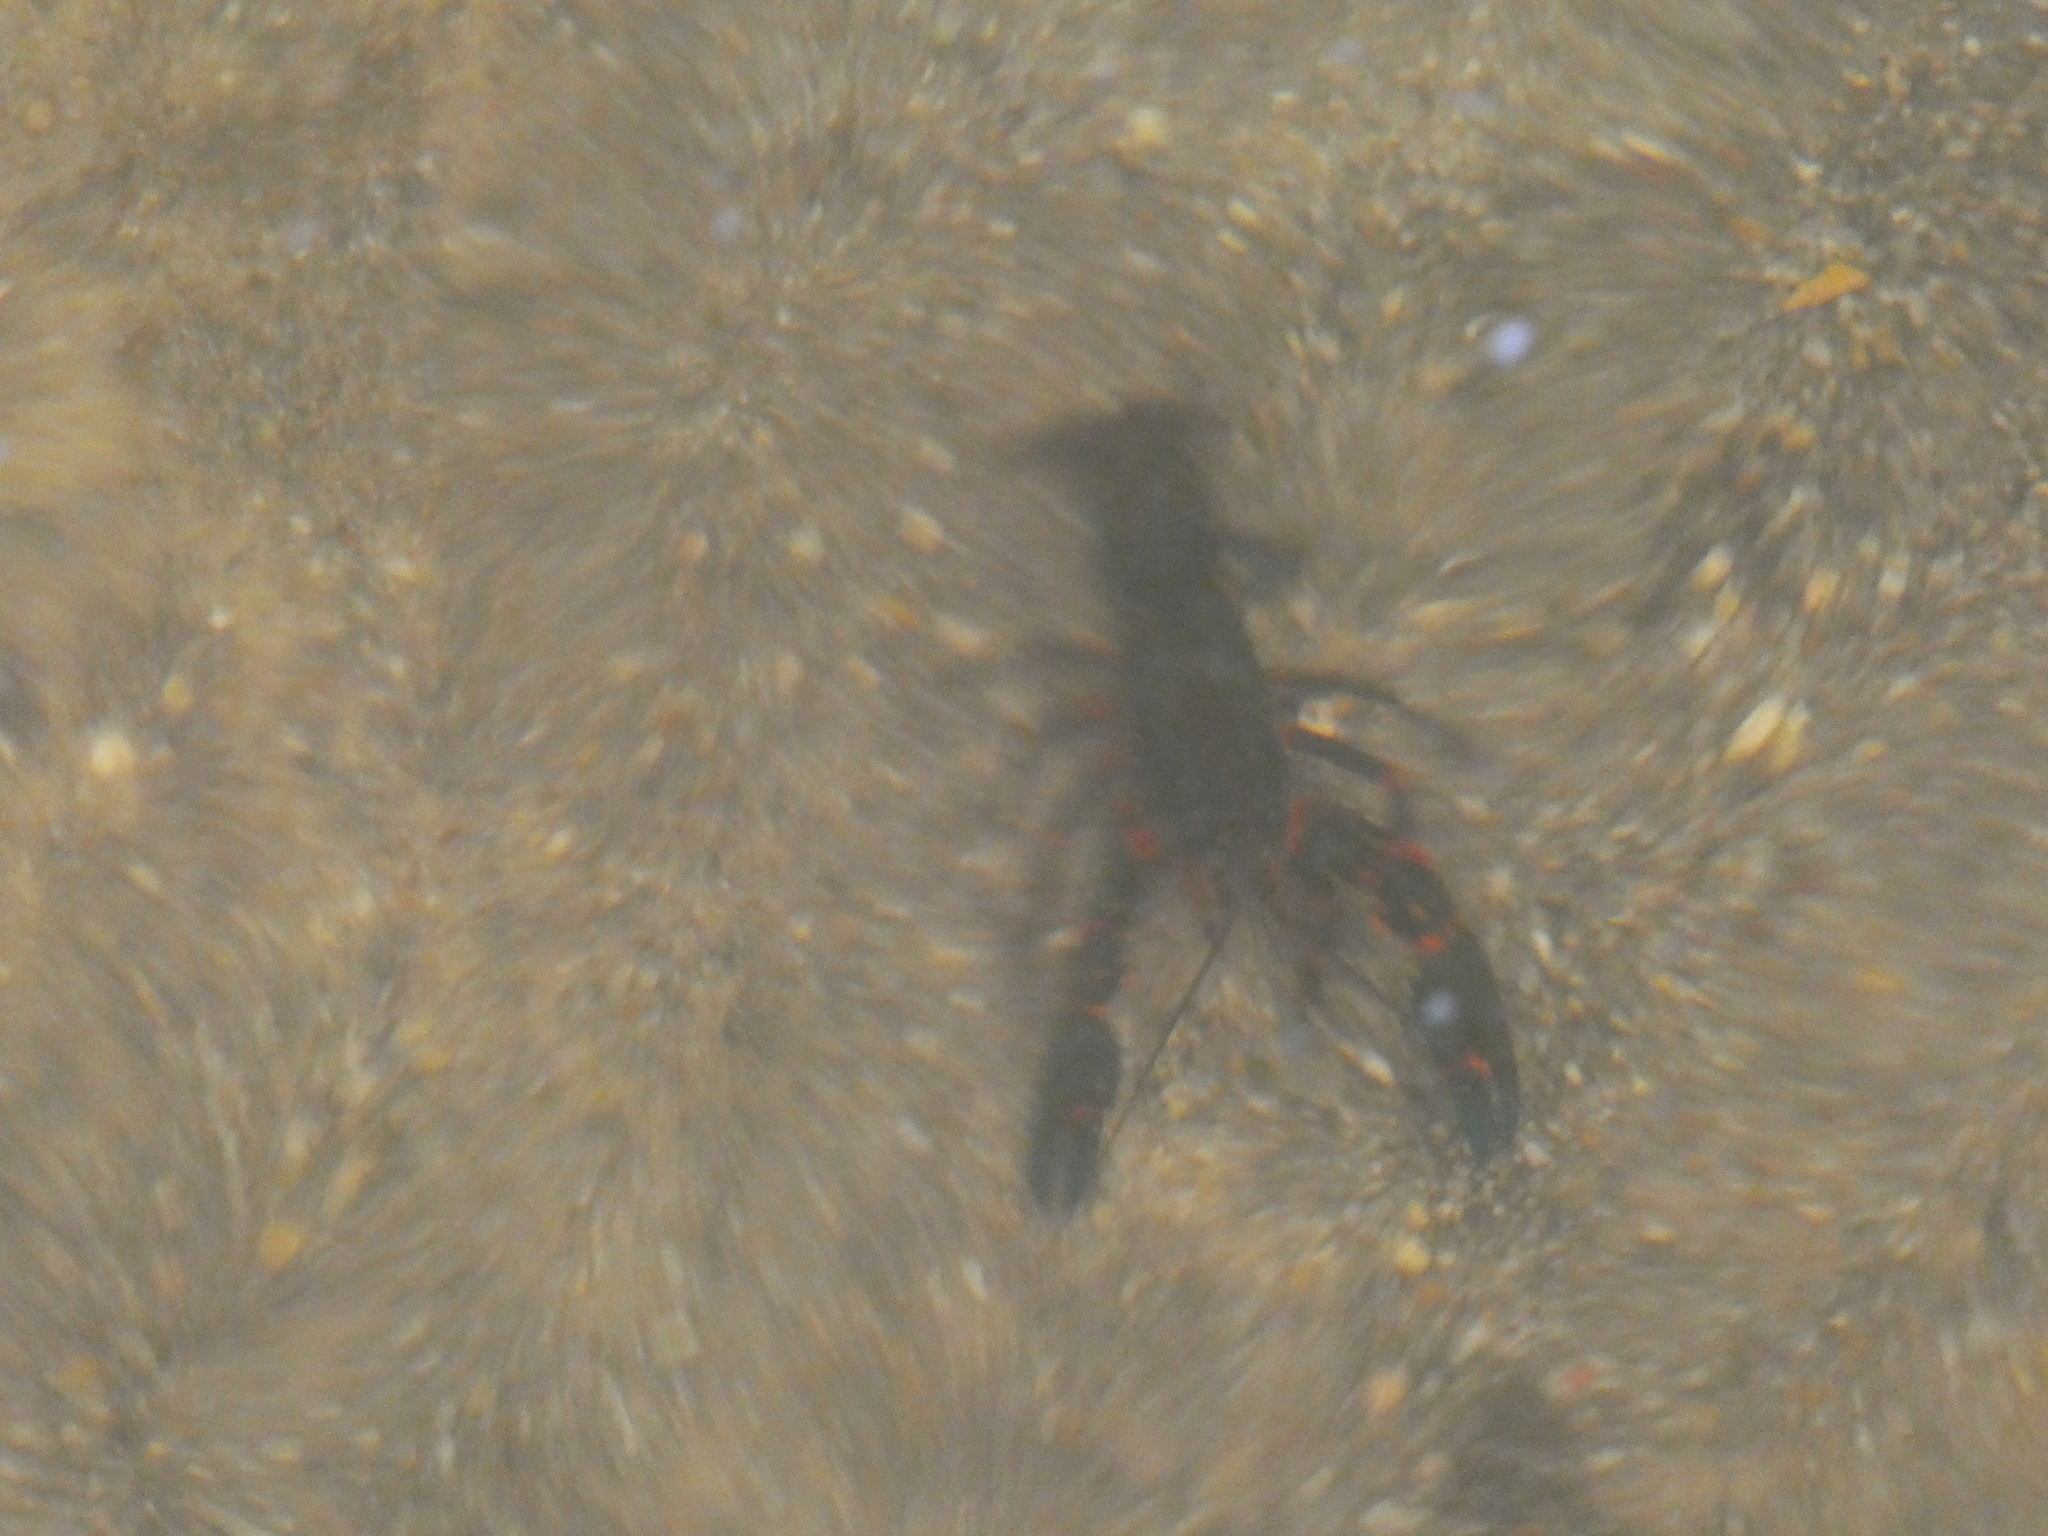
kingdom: Animalia
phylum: Arthropoda
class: Malacostraca
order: Decapoda
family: Parastacidae
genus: Euastacus
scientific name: Euastacus
